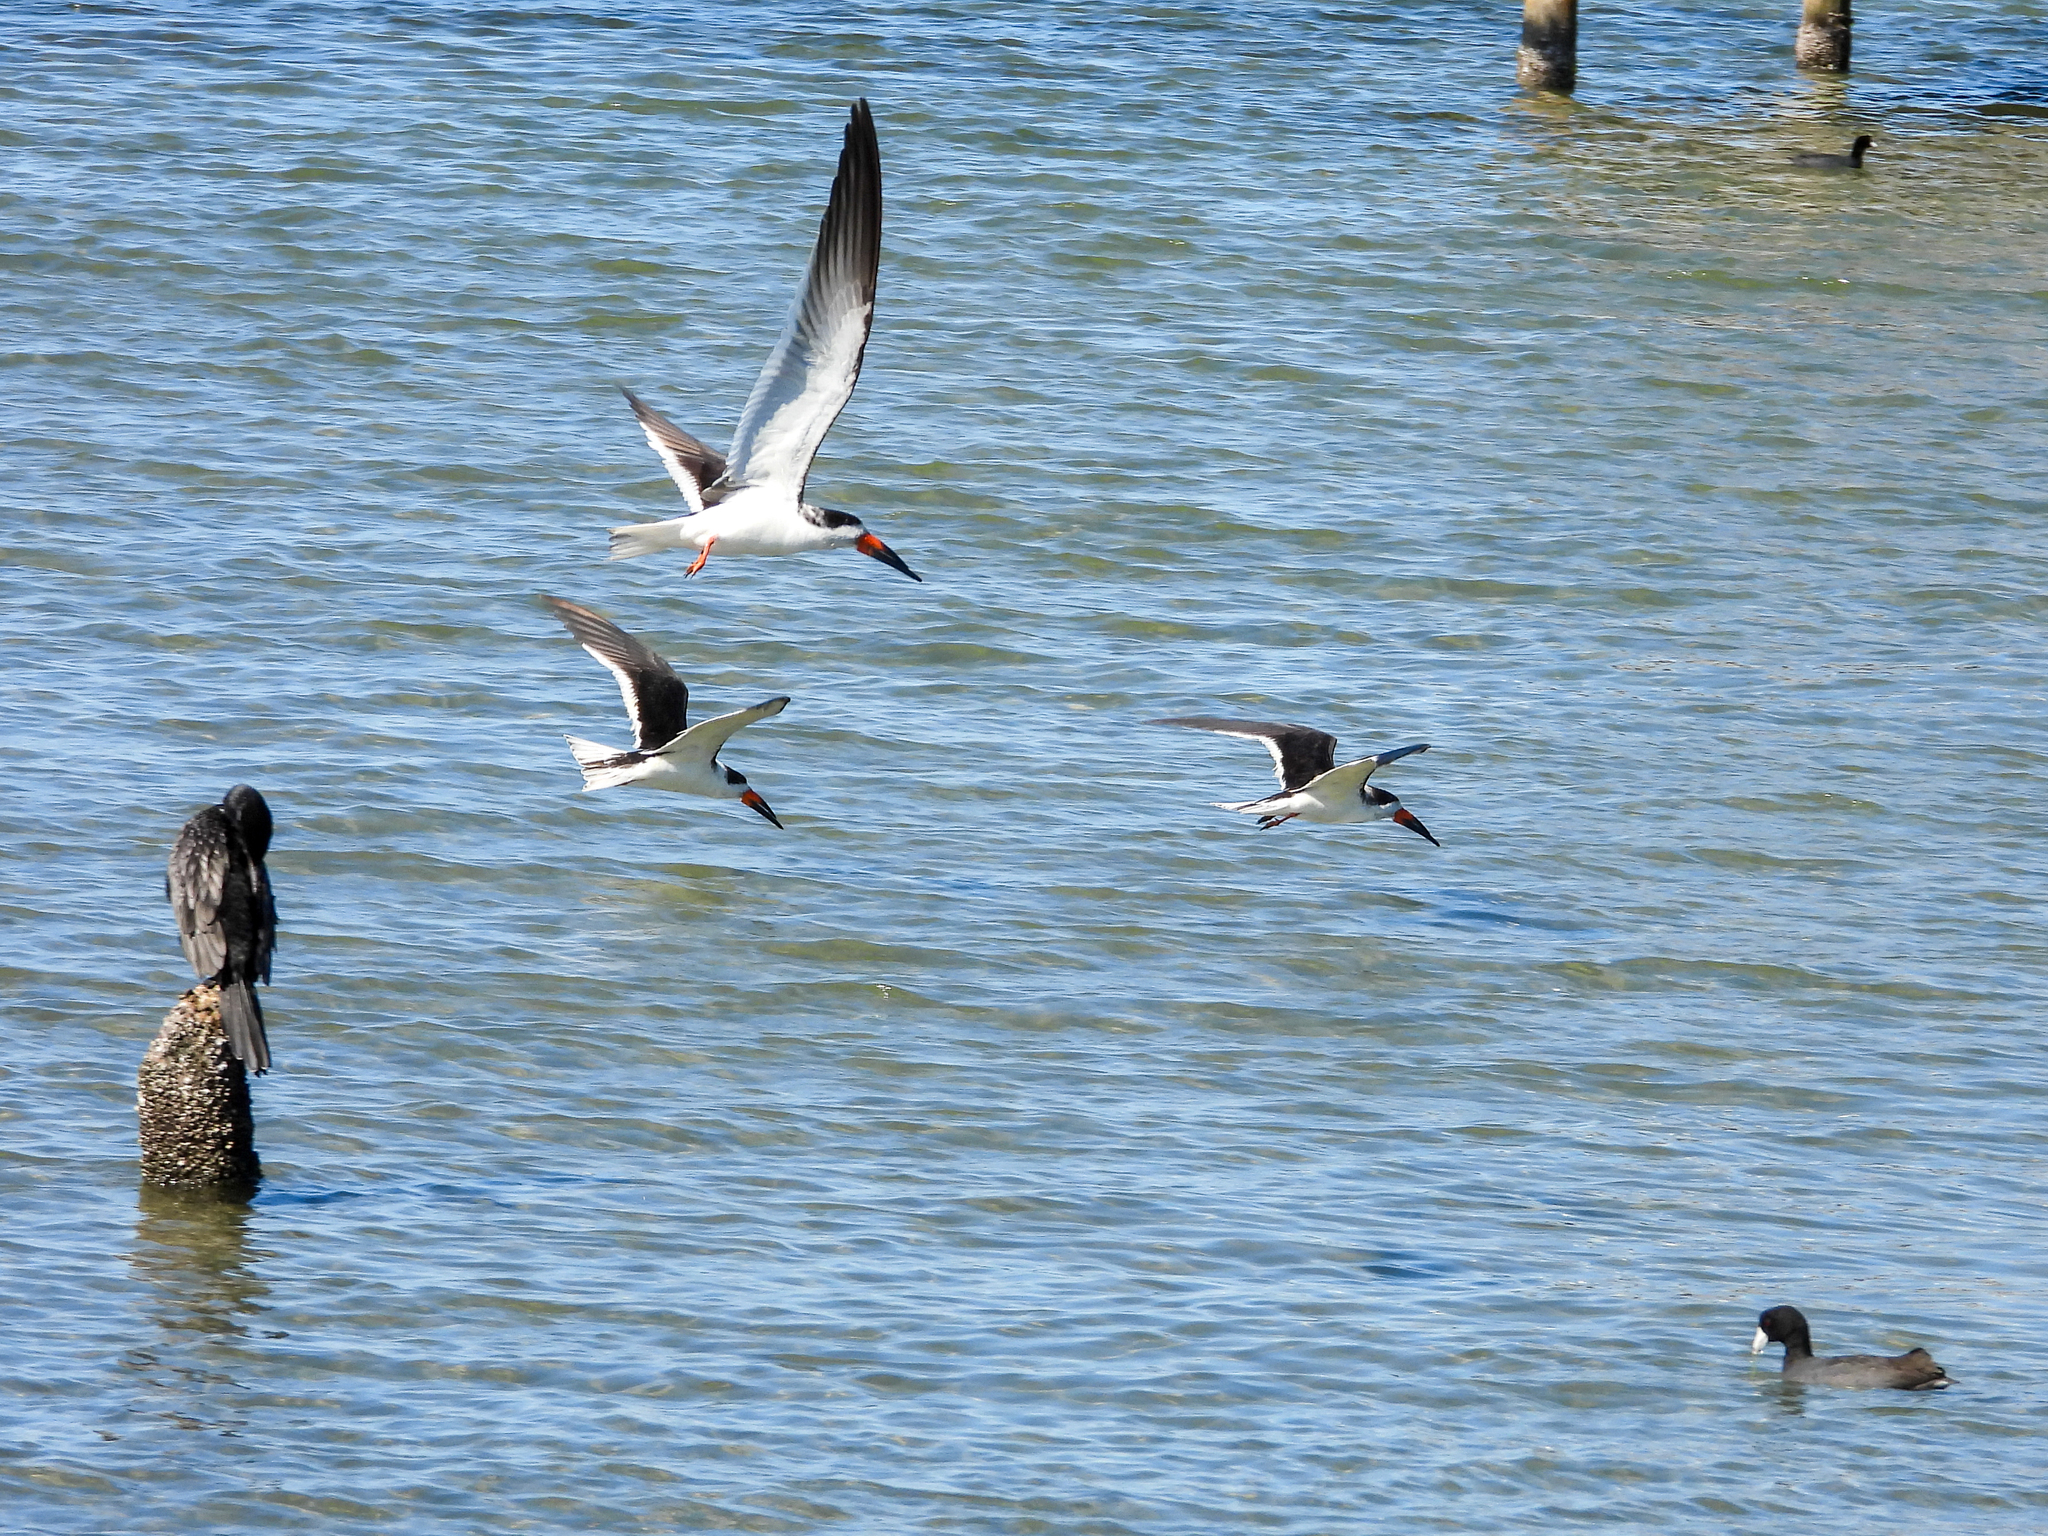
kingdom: Animalia
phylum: Chordata
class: Aves
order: Charadriiformes
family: Laridae
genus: Rynchops
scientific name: Rynchops niger
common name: Black skimmer
